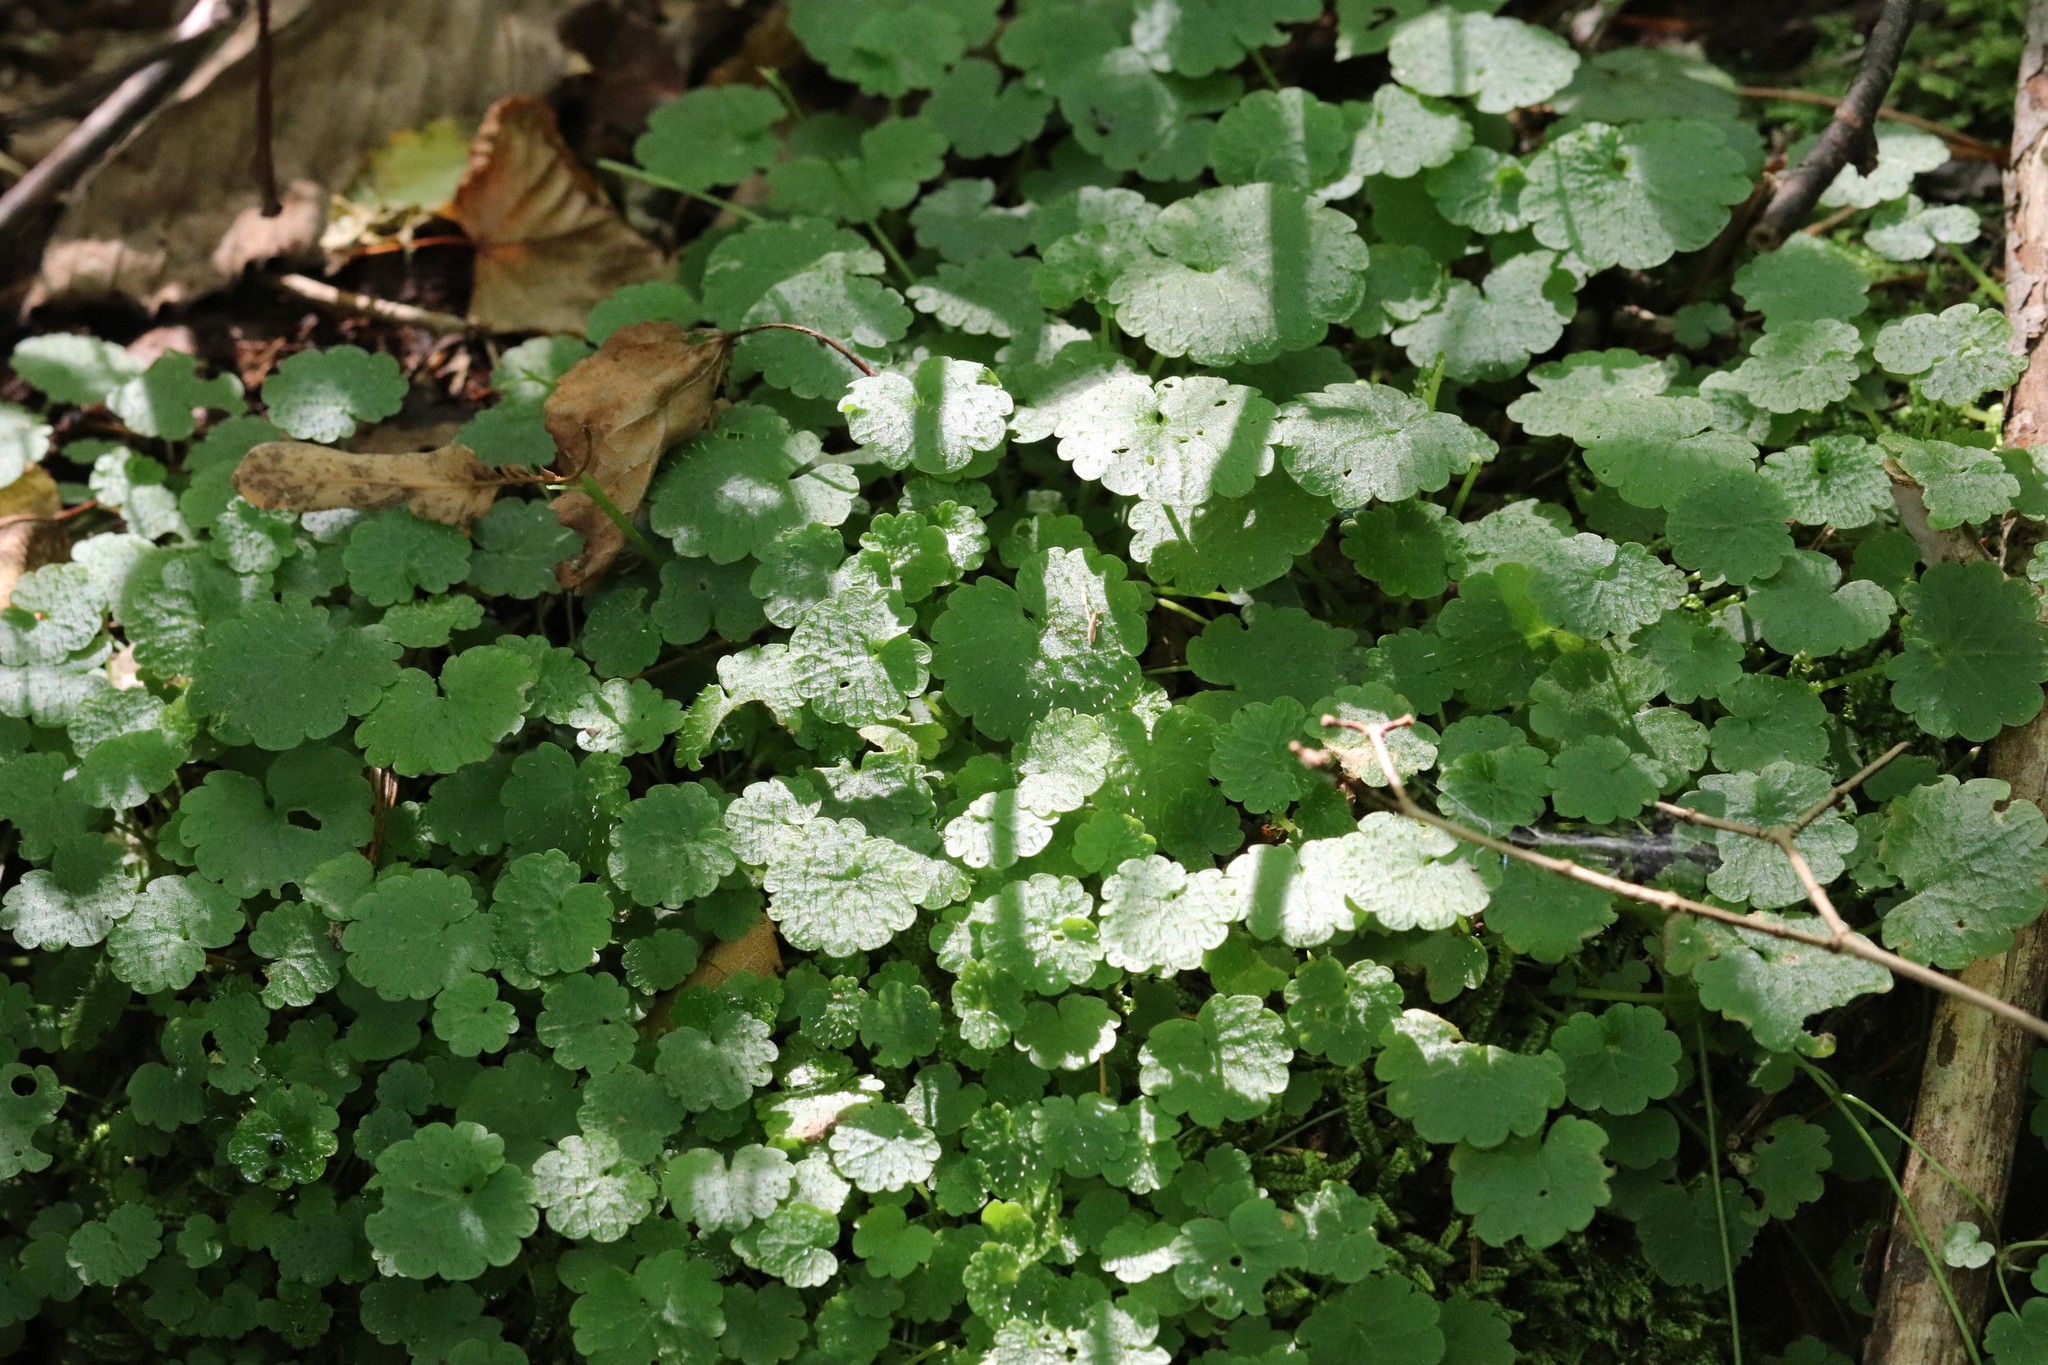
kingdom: Plantae
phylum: Tracheophyta
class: Magnoliopsida
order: Saxifragales
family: Saxifragaceae
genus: Chrysosplenium
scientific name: Chrysosplenium flagelliferum
